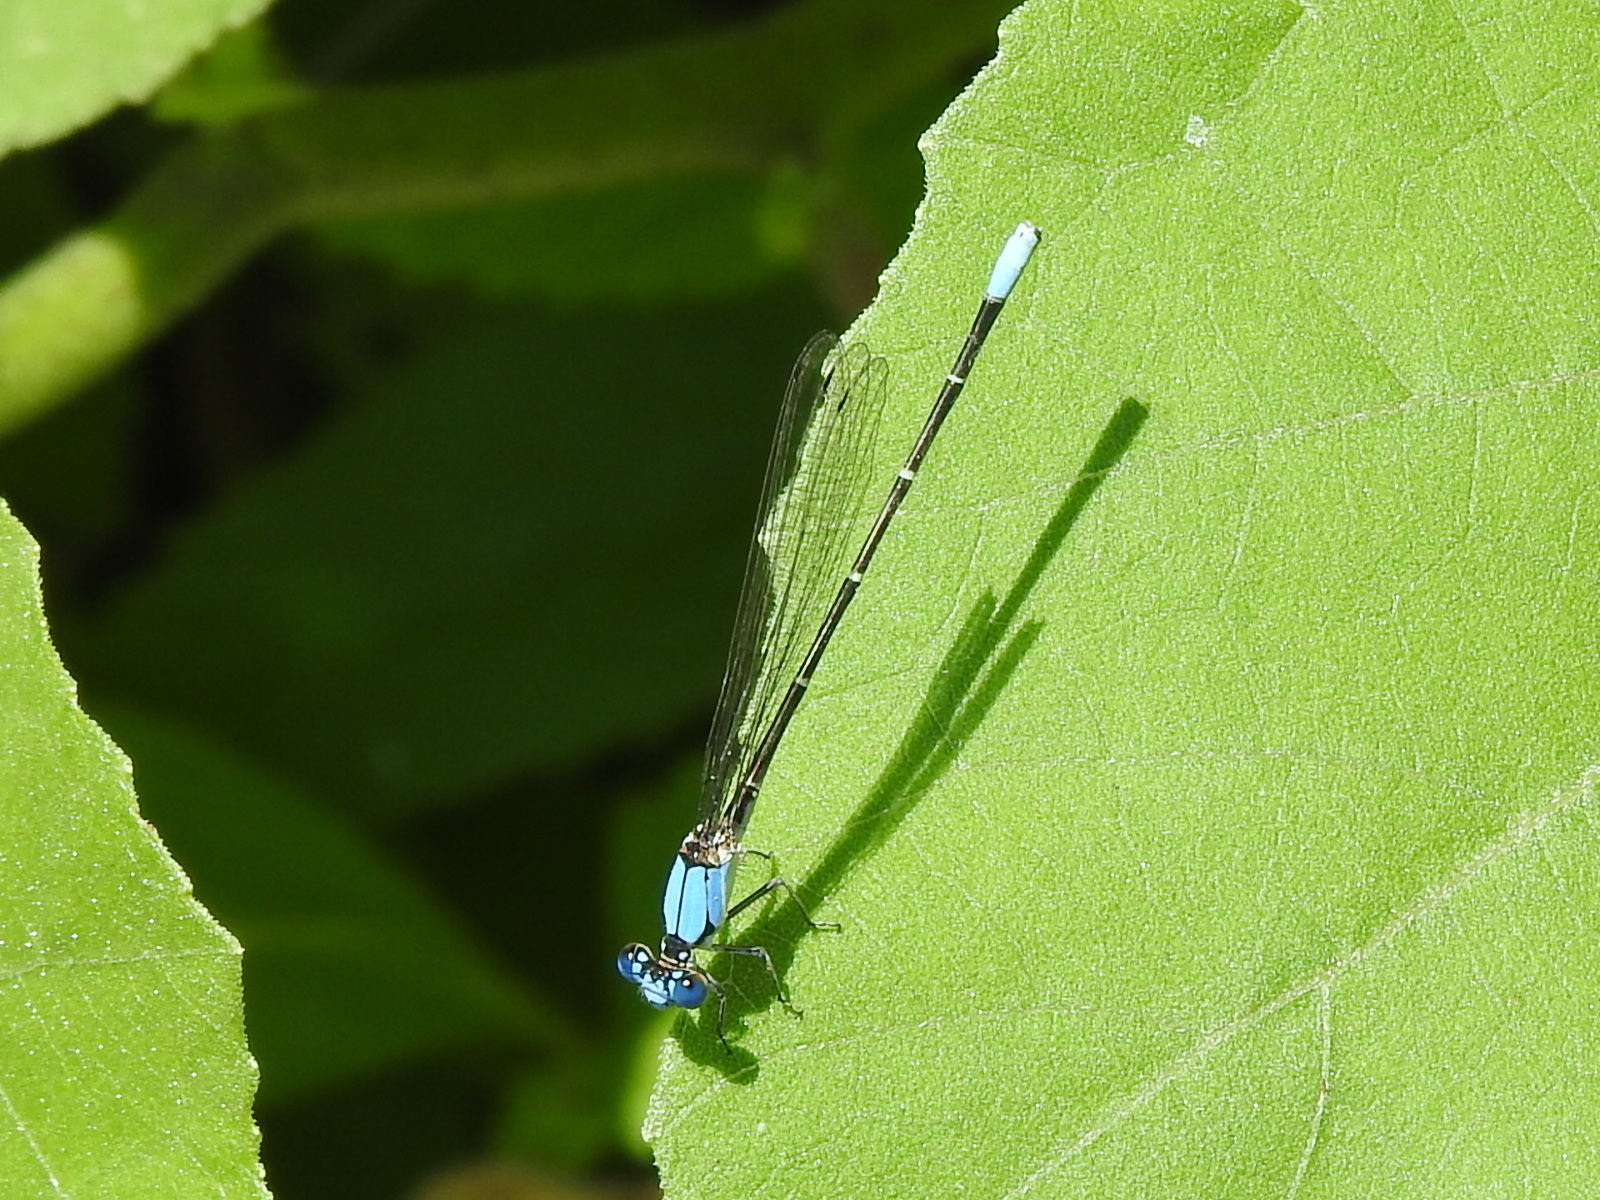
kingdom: Animalia
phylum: Arthropoda
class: Insecta
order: Odonata
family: Coenagrionidae
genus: Argia
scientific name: Argia apicalis
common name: Blue-fronted dancer
